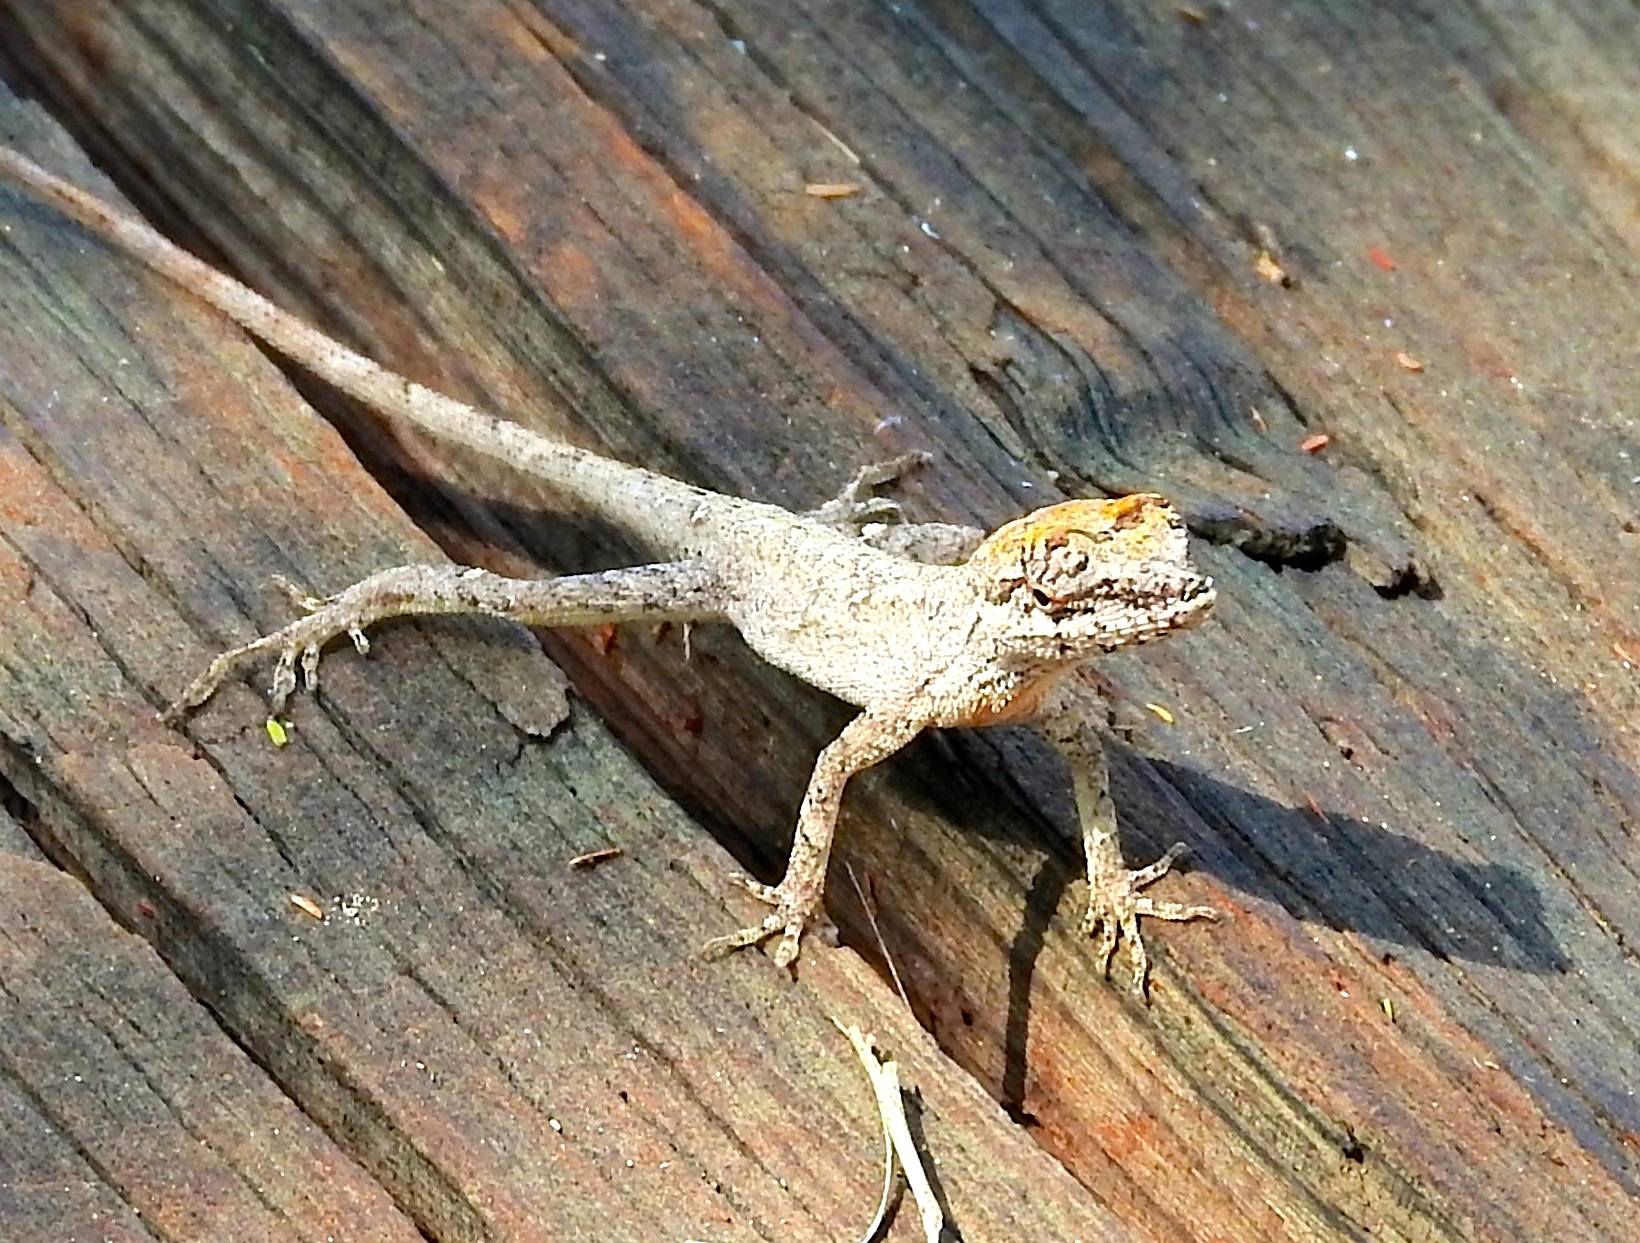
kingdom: Animalia
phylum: Chordata
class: Squamata
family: Dactyloidae
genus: Anolis
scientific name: Anolis nebulosus
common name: Clouded anole
